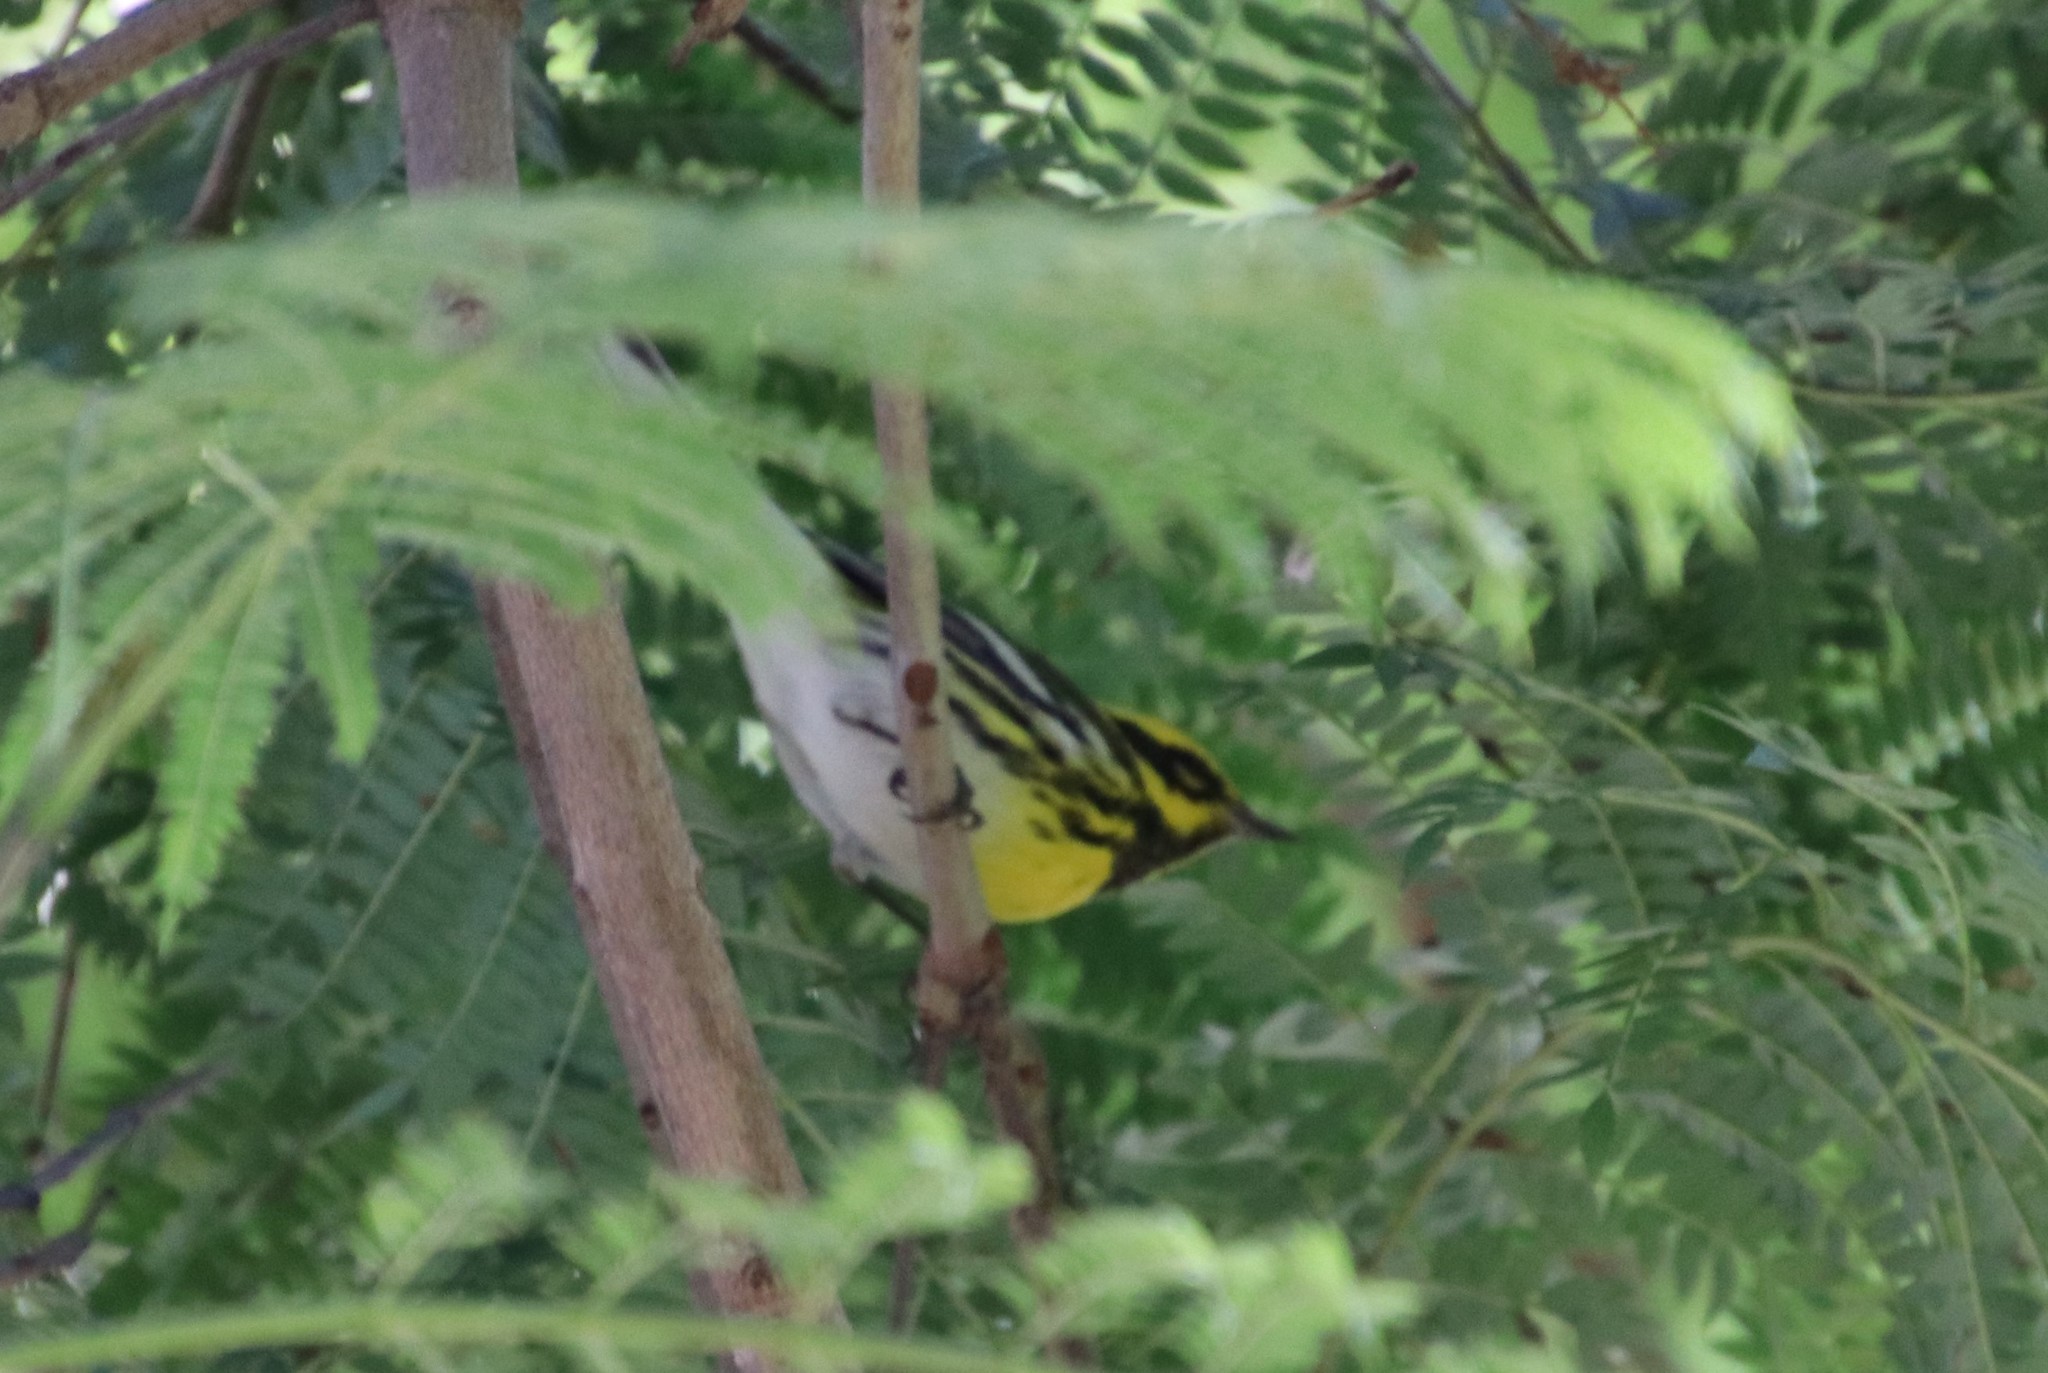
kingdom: Animalia
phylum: Chordata
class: Aves
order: Passeriformes
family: Parulidae
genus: Setophaga
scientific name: Setophaga townsendi
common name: Townsend's warbler
